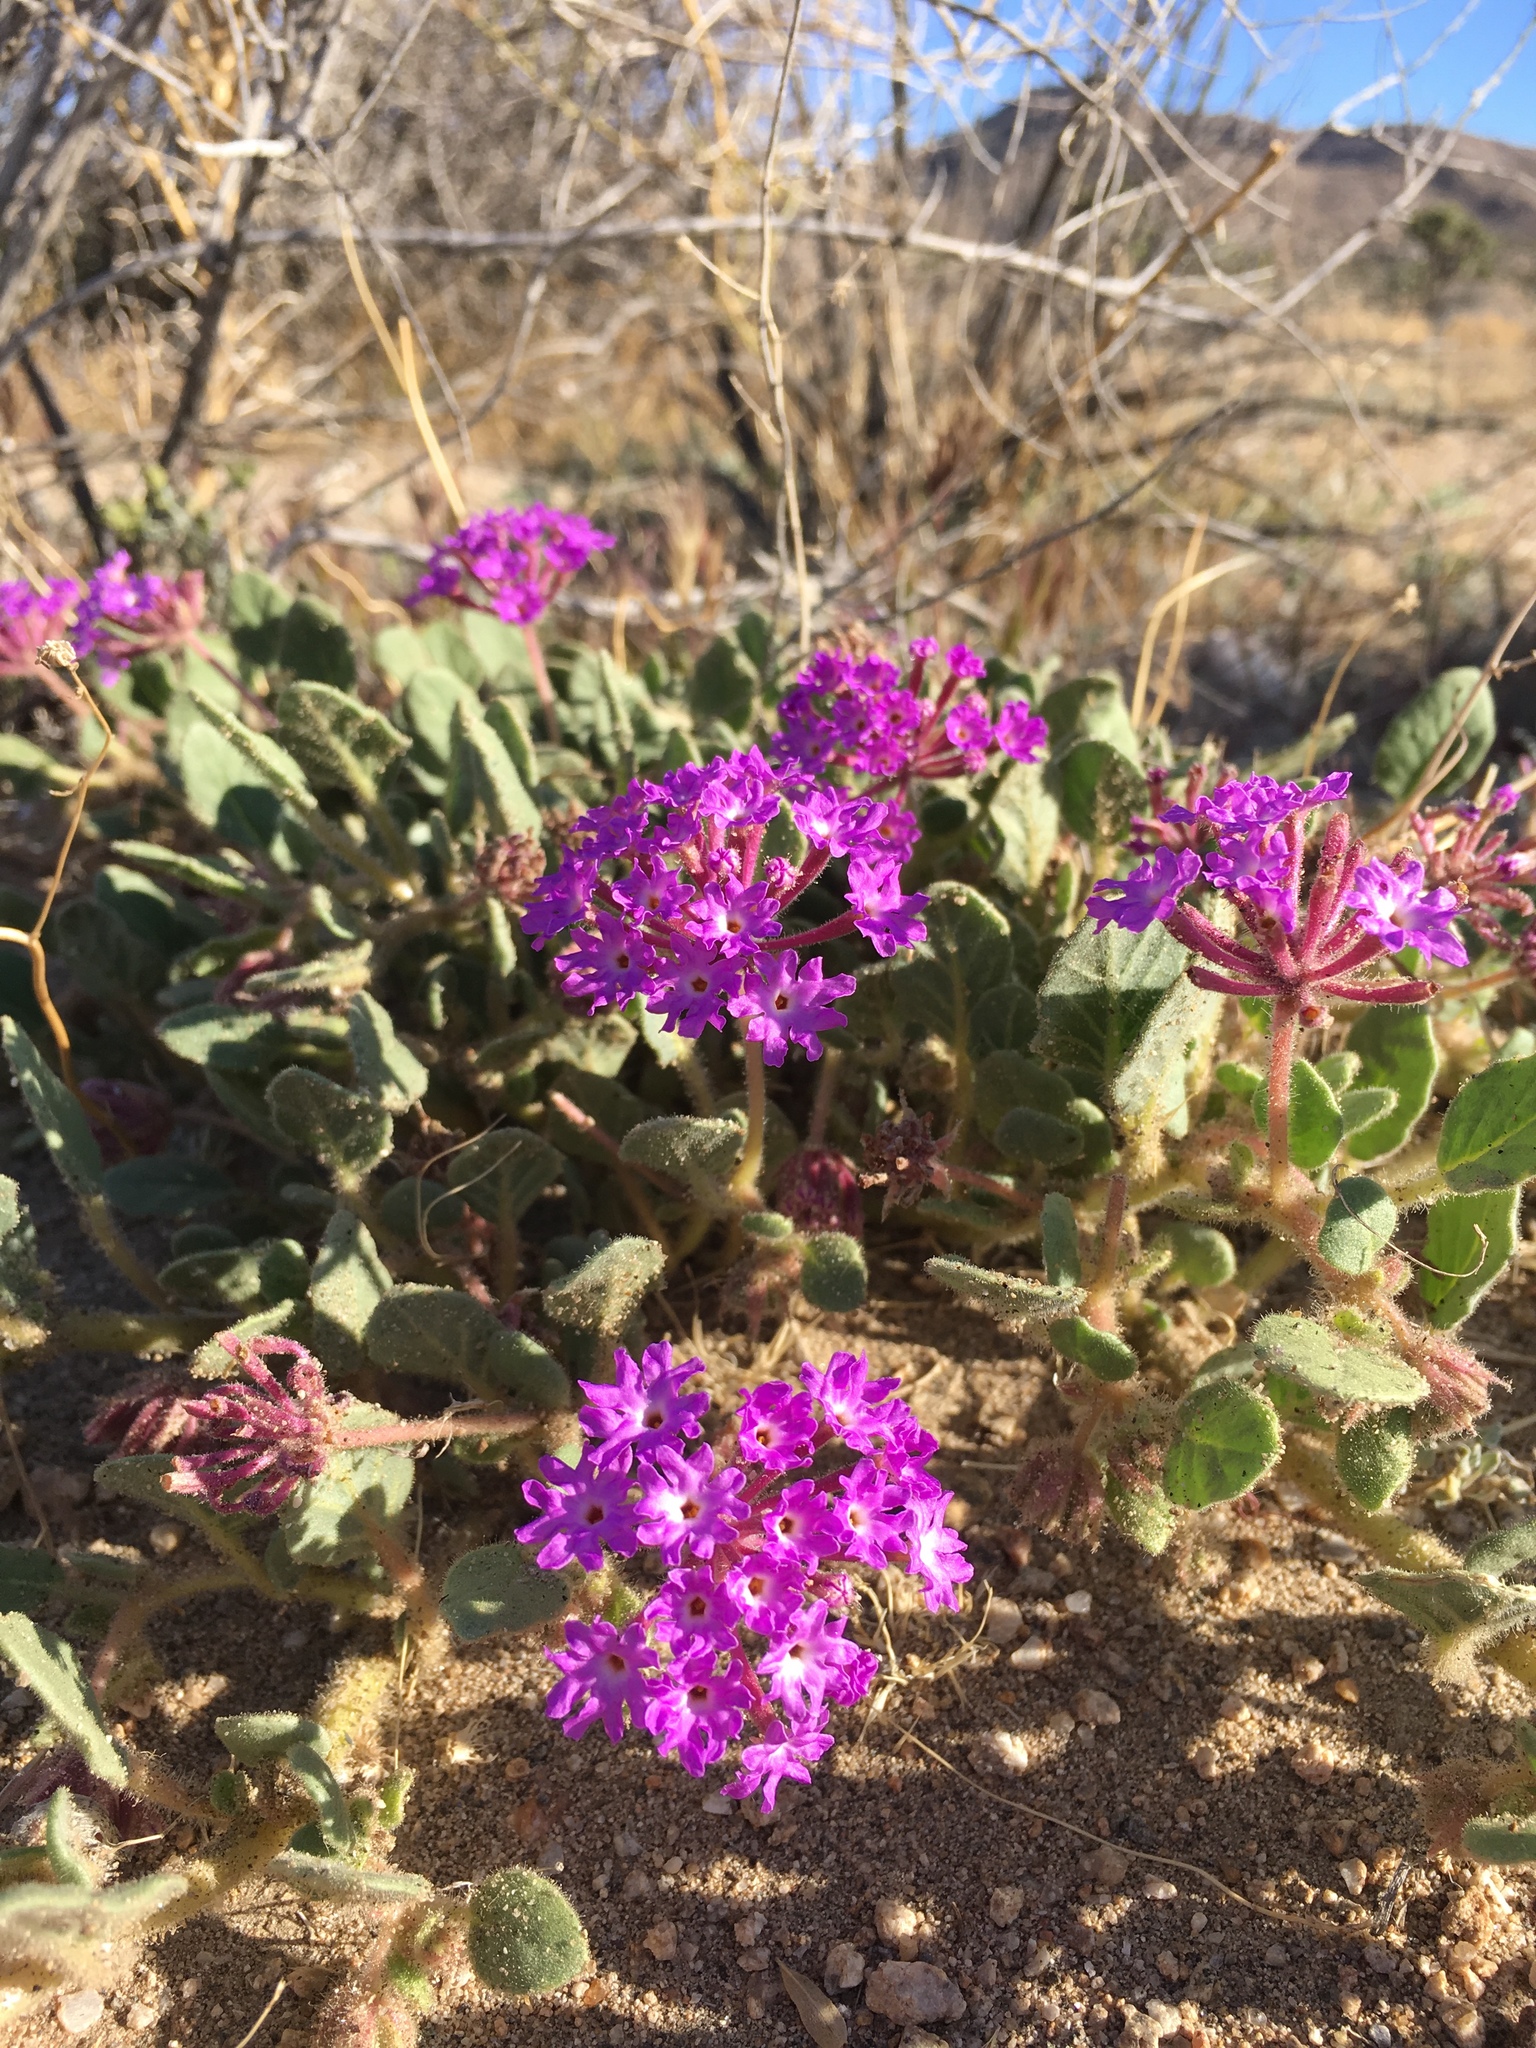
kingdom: Plantae
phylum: Tracheophyta
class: Magnoliopsida
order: Caryophyllales
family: Nyctaginaceae
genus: Abronia
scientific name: Abronia villosa
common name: Desert sand-verbena
